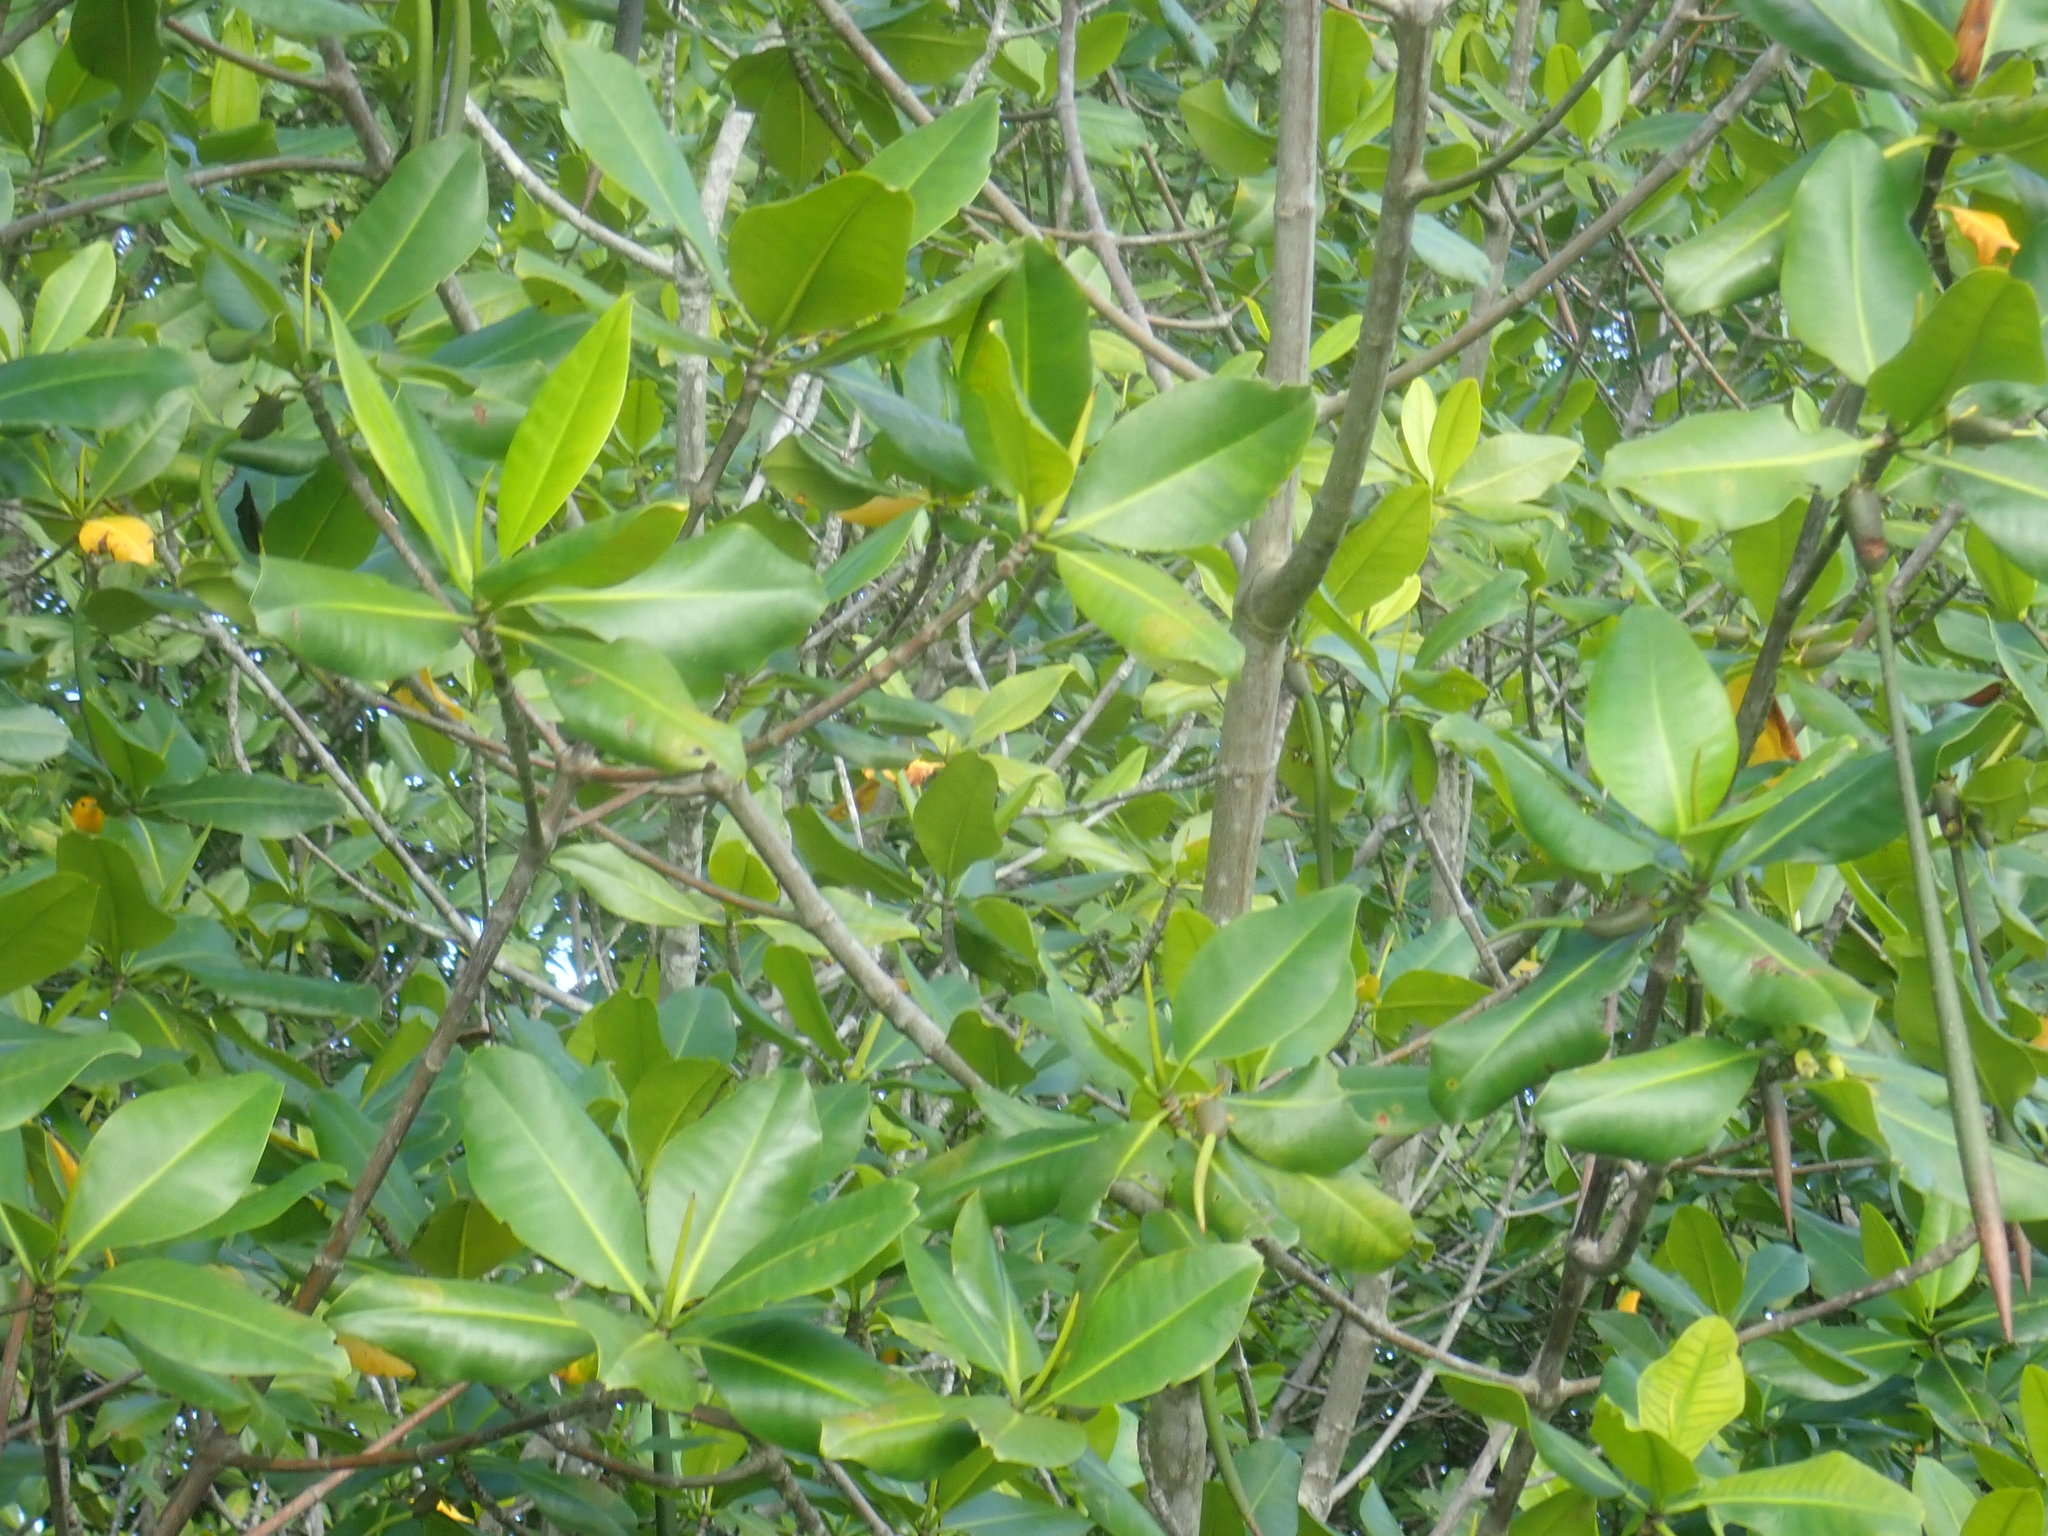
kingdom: Animalia
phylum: Chordata
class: Aves
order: Passeriformes
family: Parulidae
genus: Protonotaria
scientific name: Protonotaria citrea
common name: Prothonotary warbler
